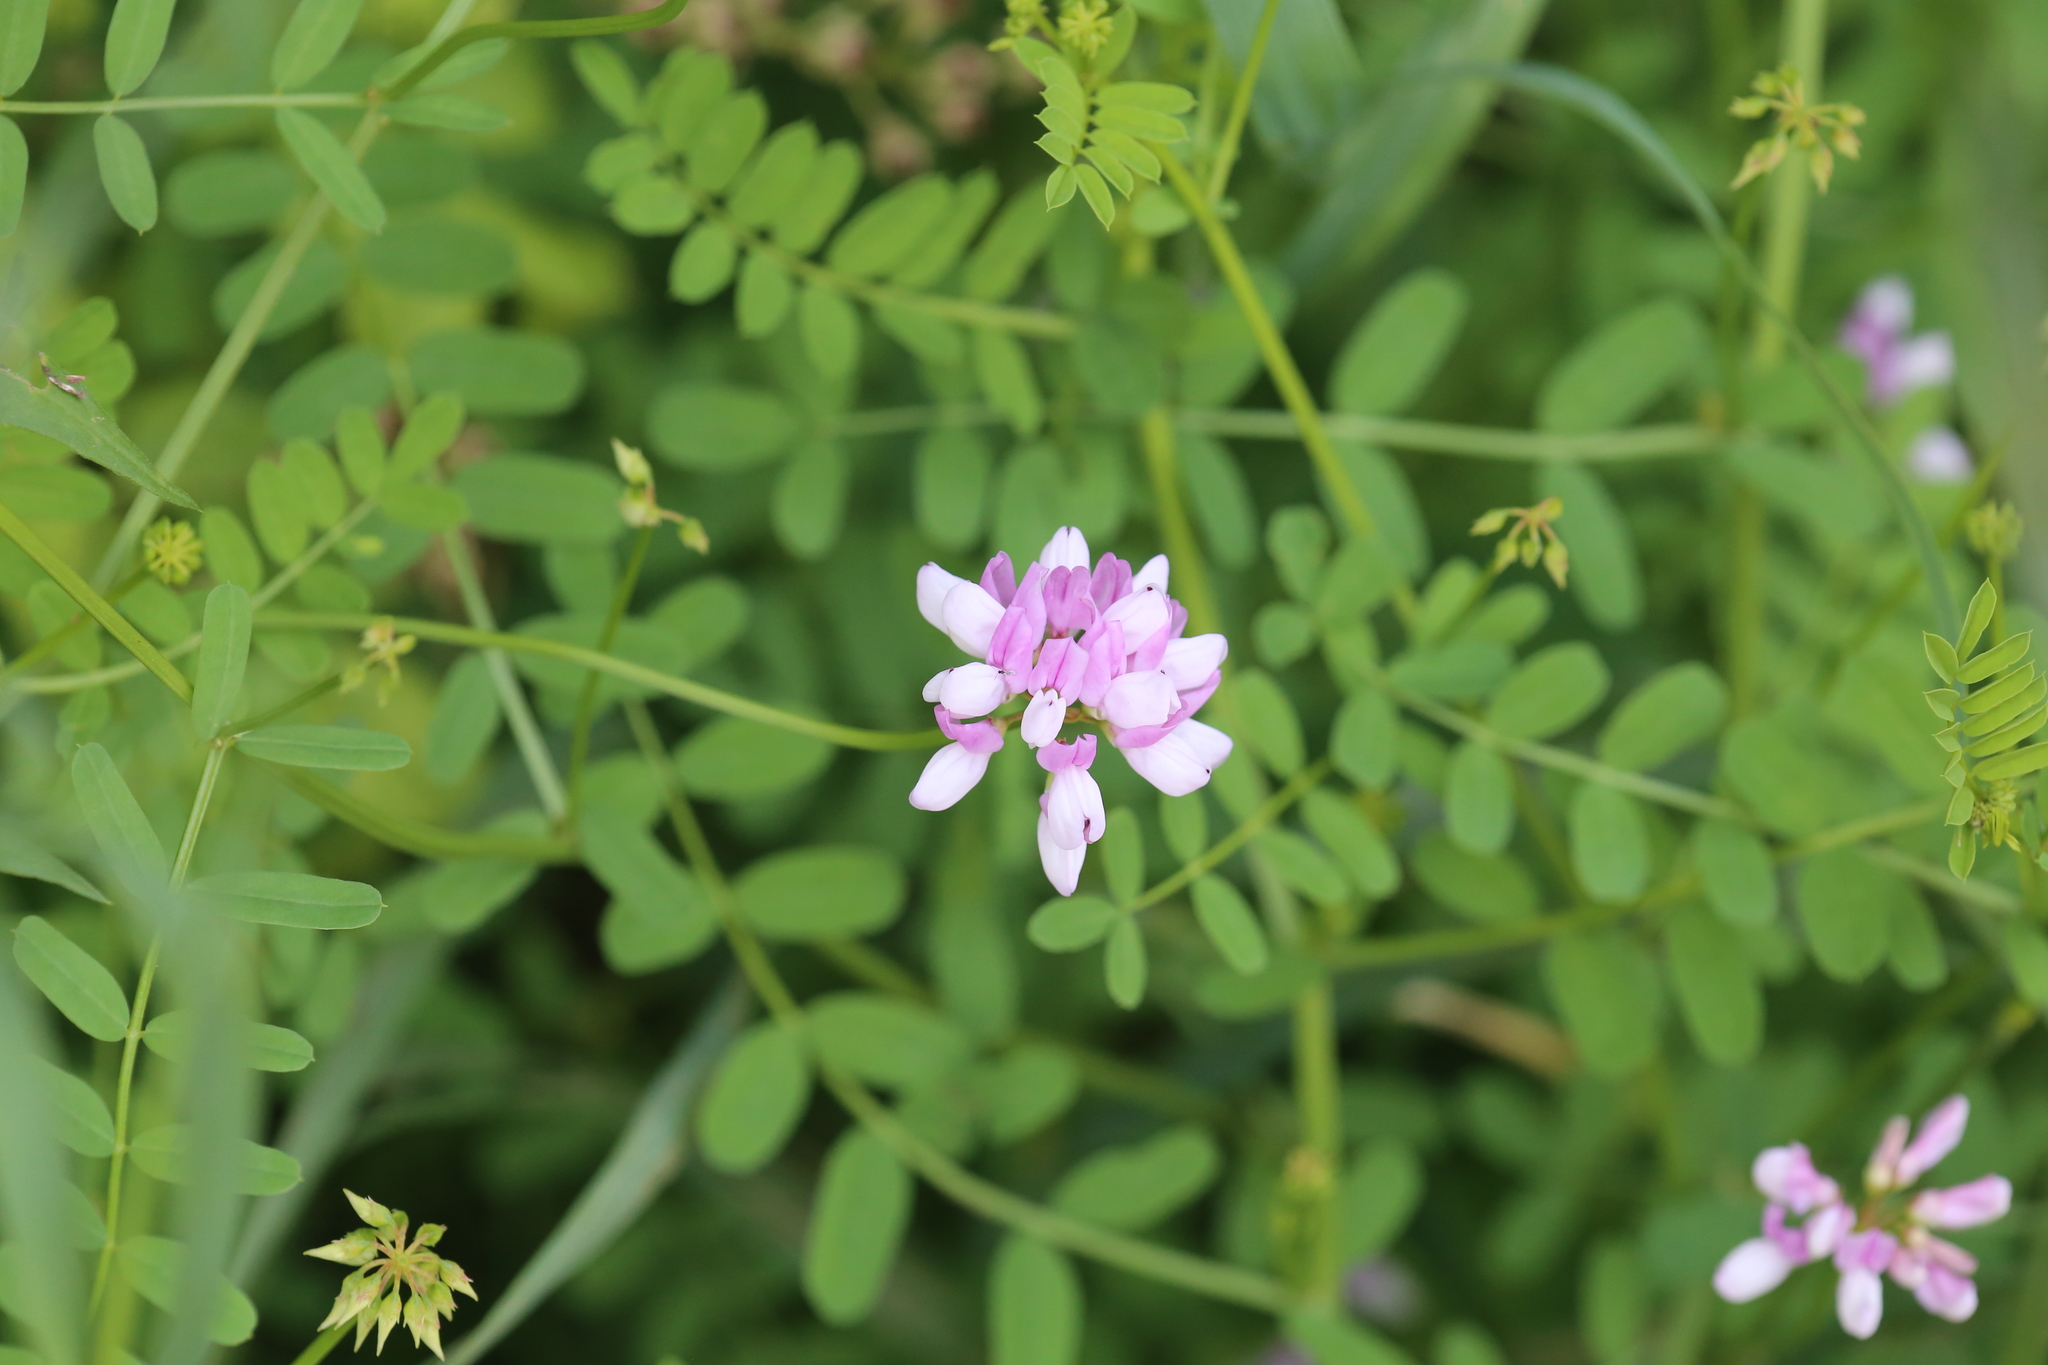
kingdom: Plantae
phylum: Tracheophyta
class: Magnoliopsida
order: Fabales
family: Fabaceae
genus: Coronilla
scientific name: Coronilla varia
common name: Crownvetch
